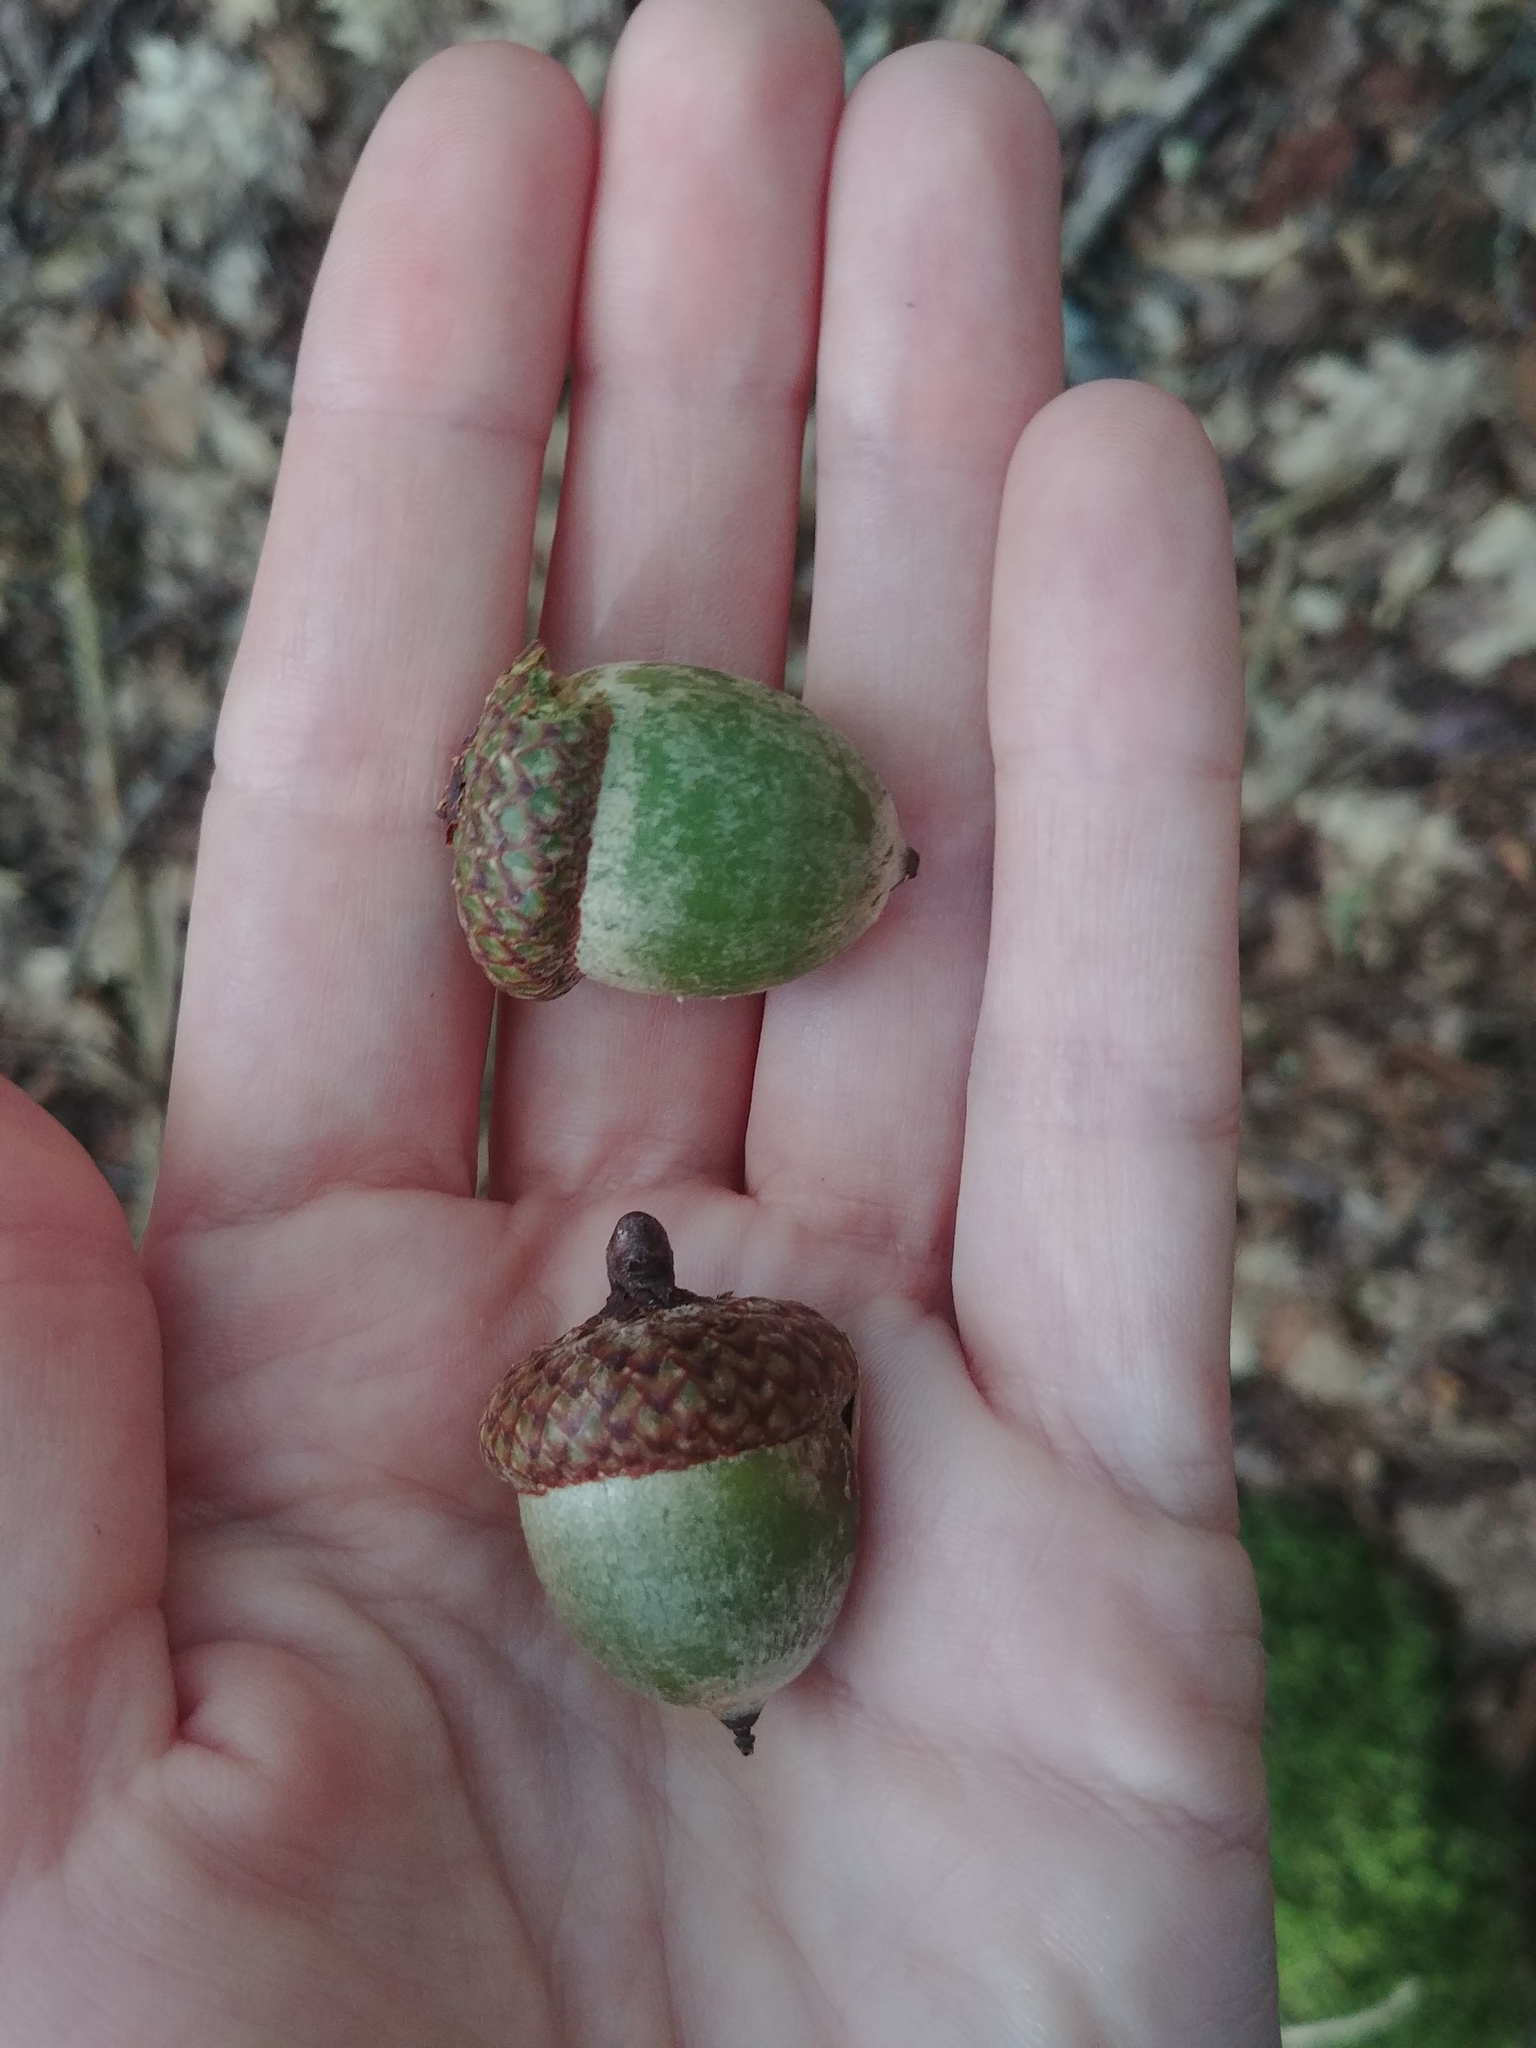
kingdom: Plantae
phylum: Tracheophyta
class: Magnoliopsida
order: Fagales
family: Fagaceae
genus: Quercus
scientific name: Quercus rubra
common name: Red oak
